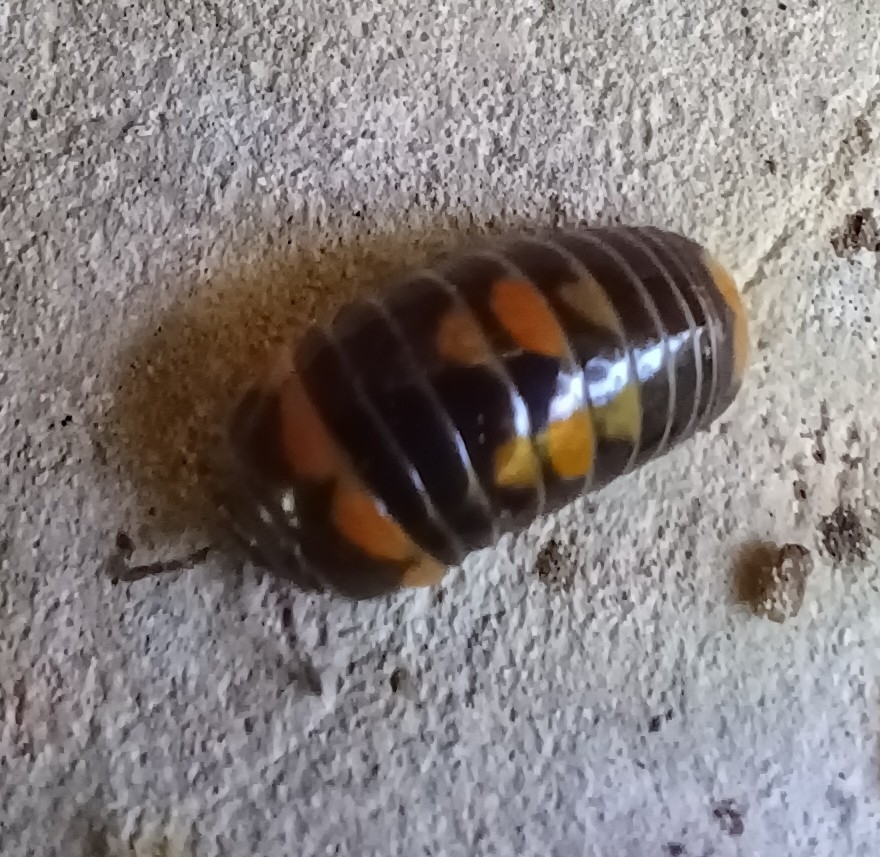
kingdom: Animalia
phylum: Arthropoda
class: Diplopoda
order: Glomerida
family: Glomeridae
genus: Glomeris
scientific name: Glomeris pulchra
